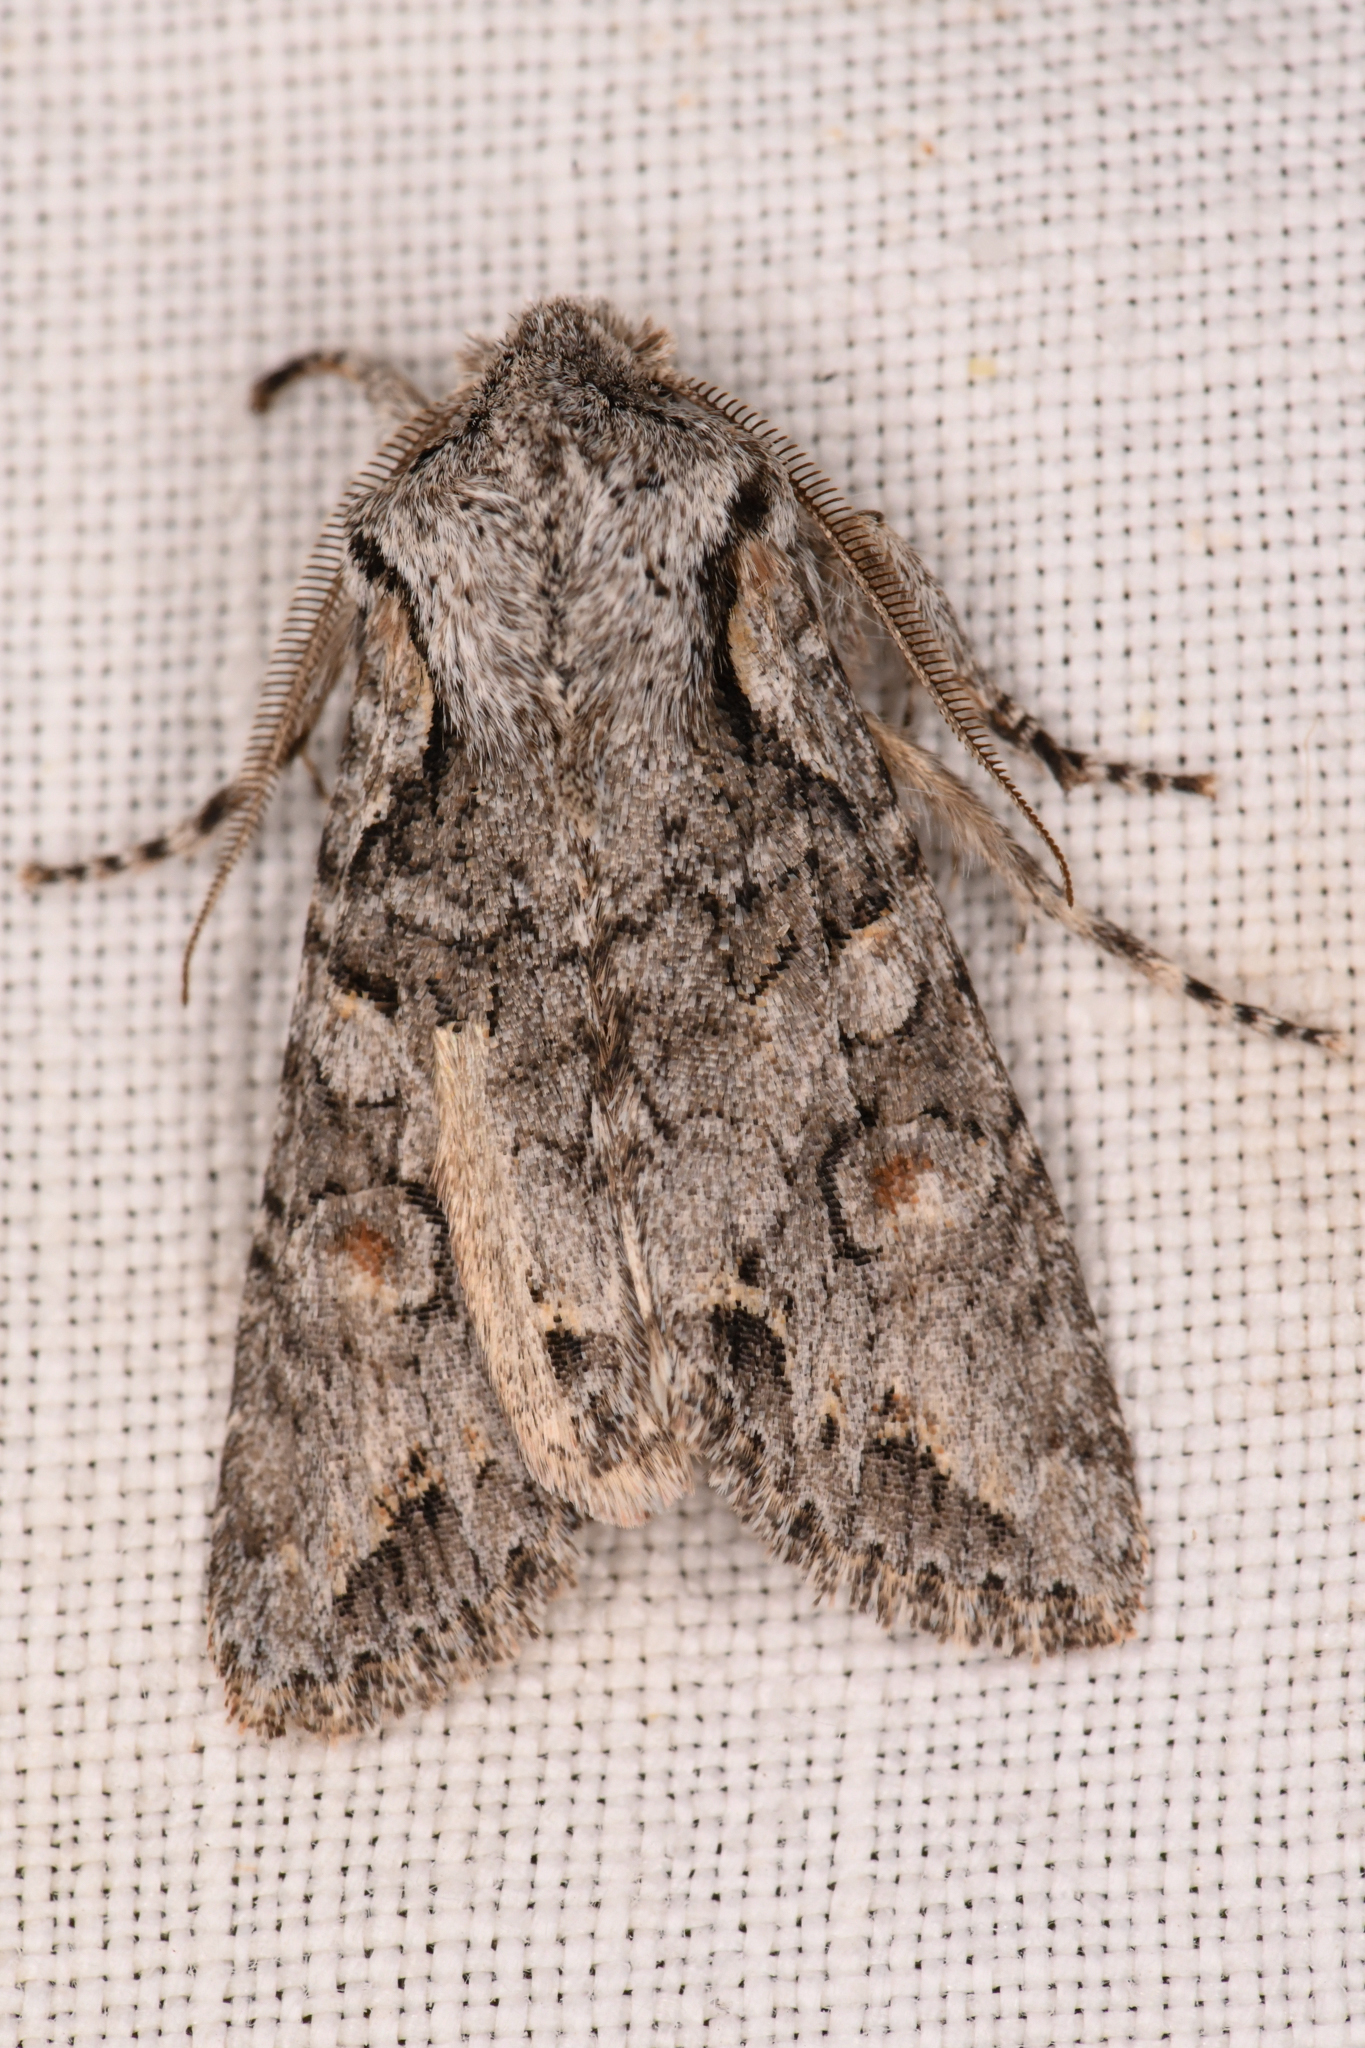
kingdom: Animalia
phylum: Arthropoda
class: Insecta
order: Lepidoptera
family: Noctuidae
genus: Egira
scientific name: Egira hiemalis
